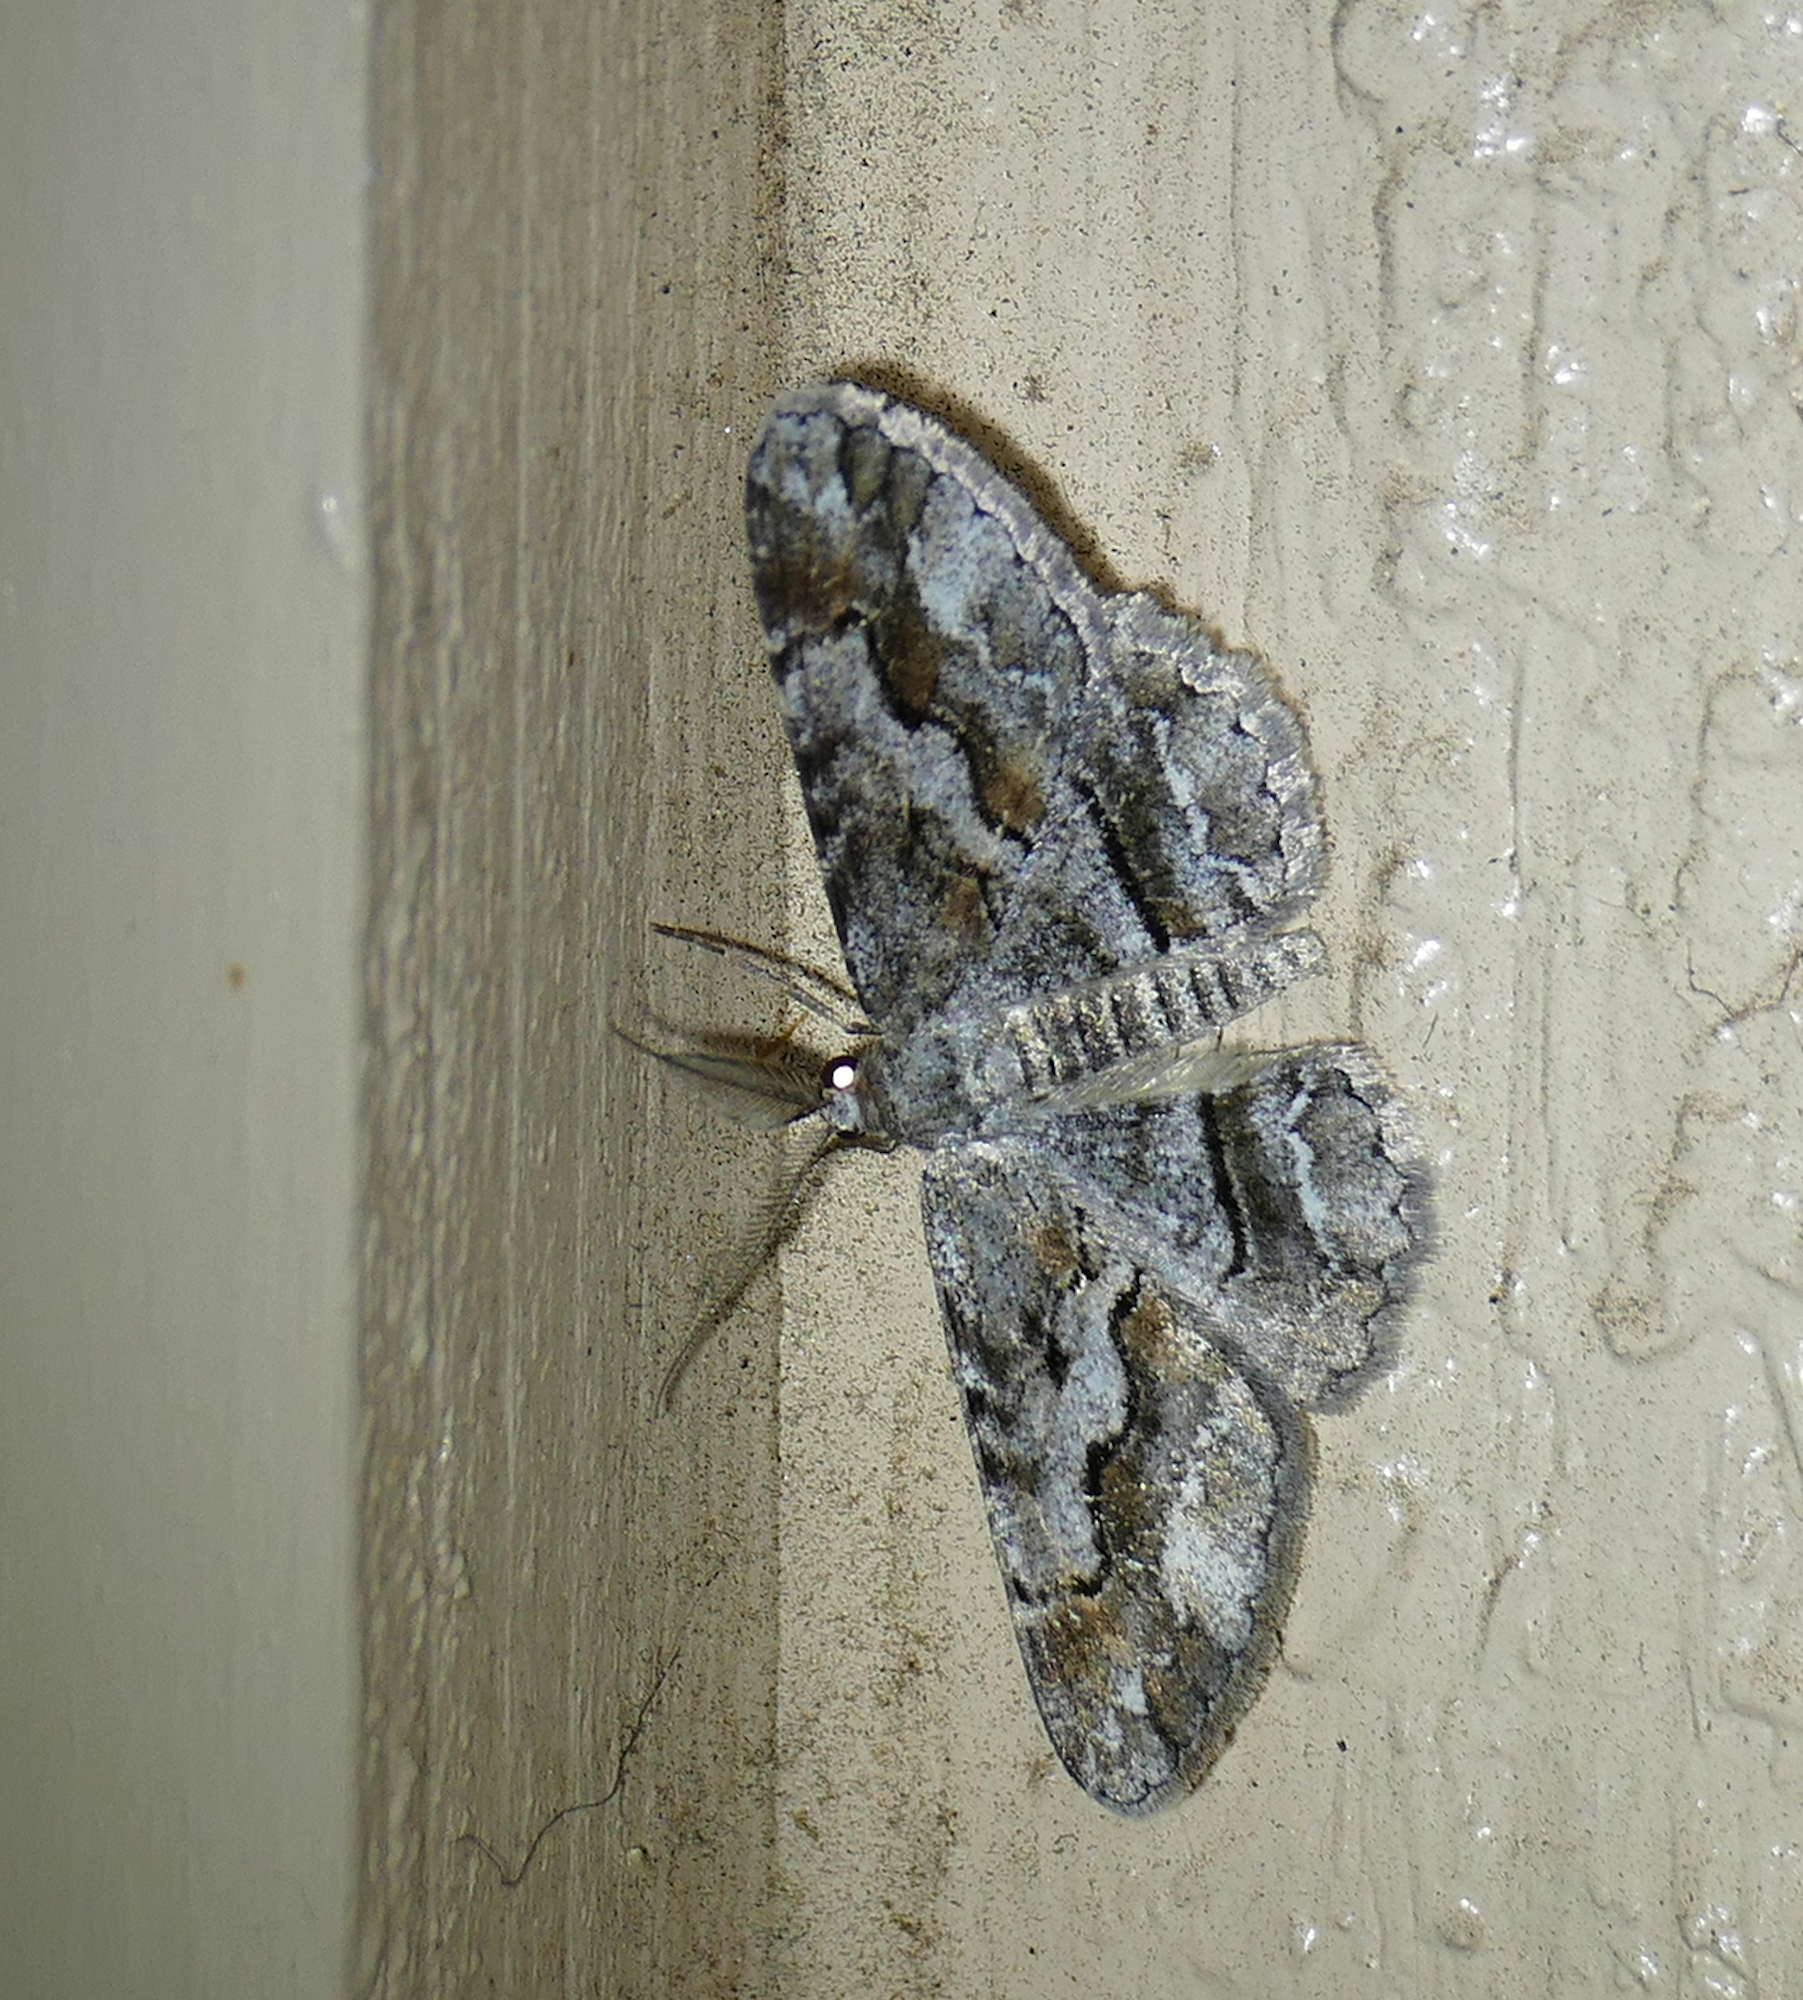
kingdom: Animalia
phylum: Arthropoda
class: Insecta
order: Lepidoptera
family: Geometridae
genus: Stenoporpia
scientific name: Stenoporpia vernata
